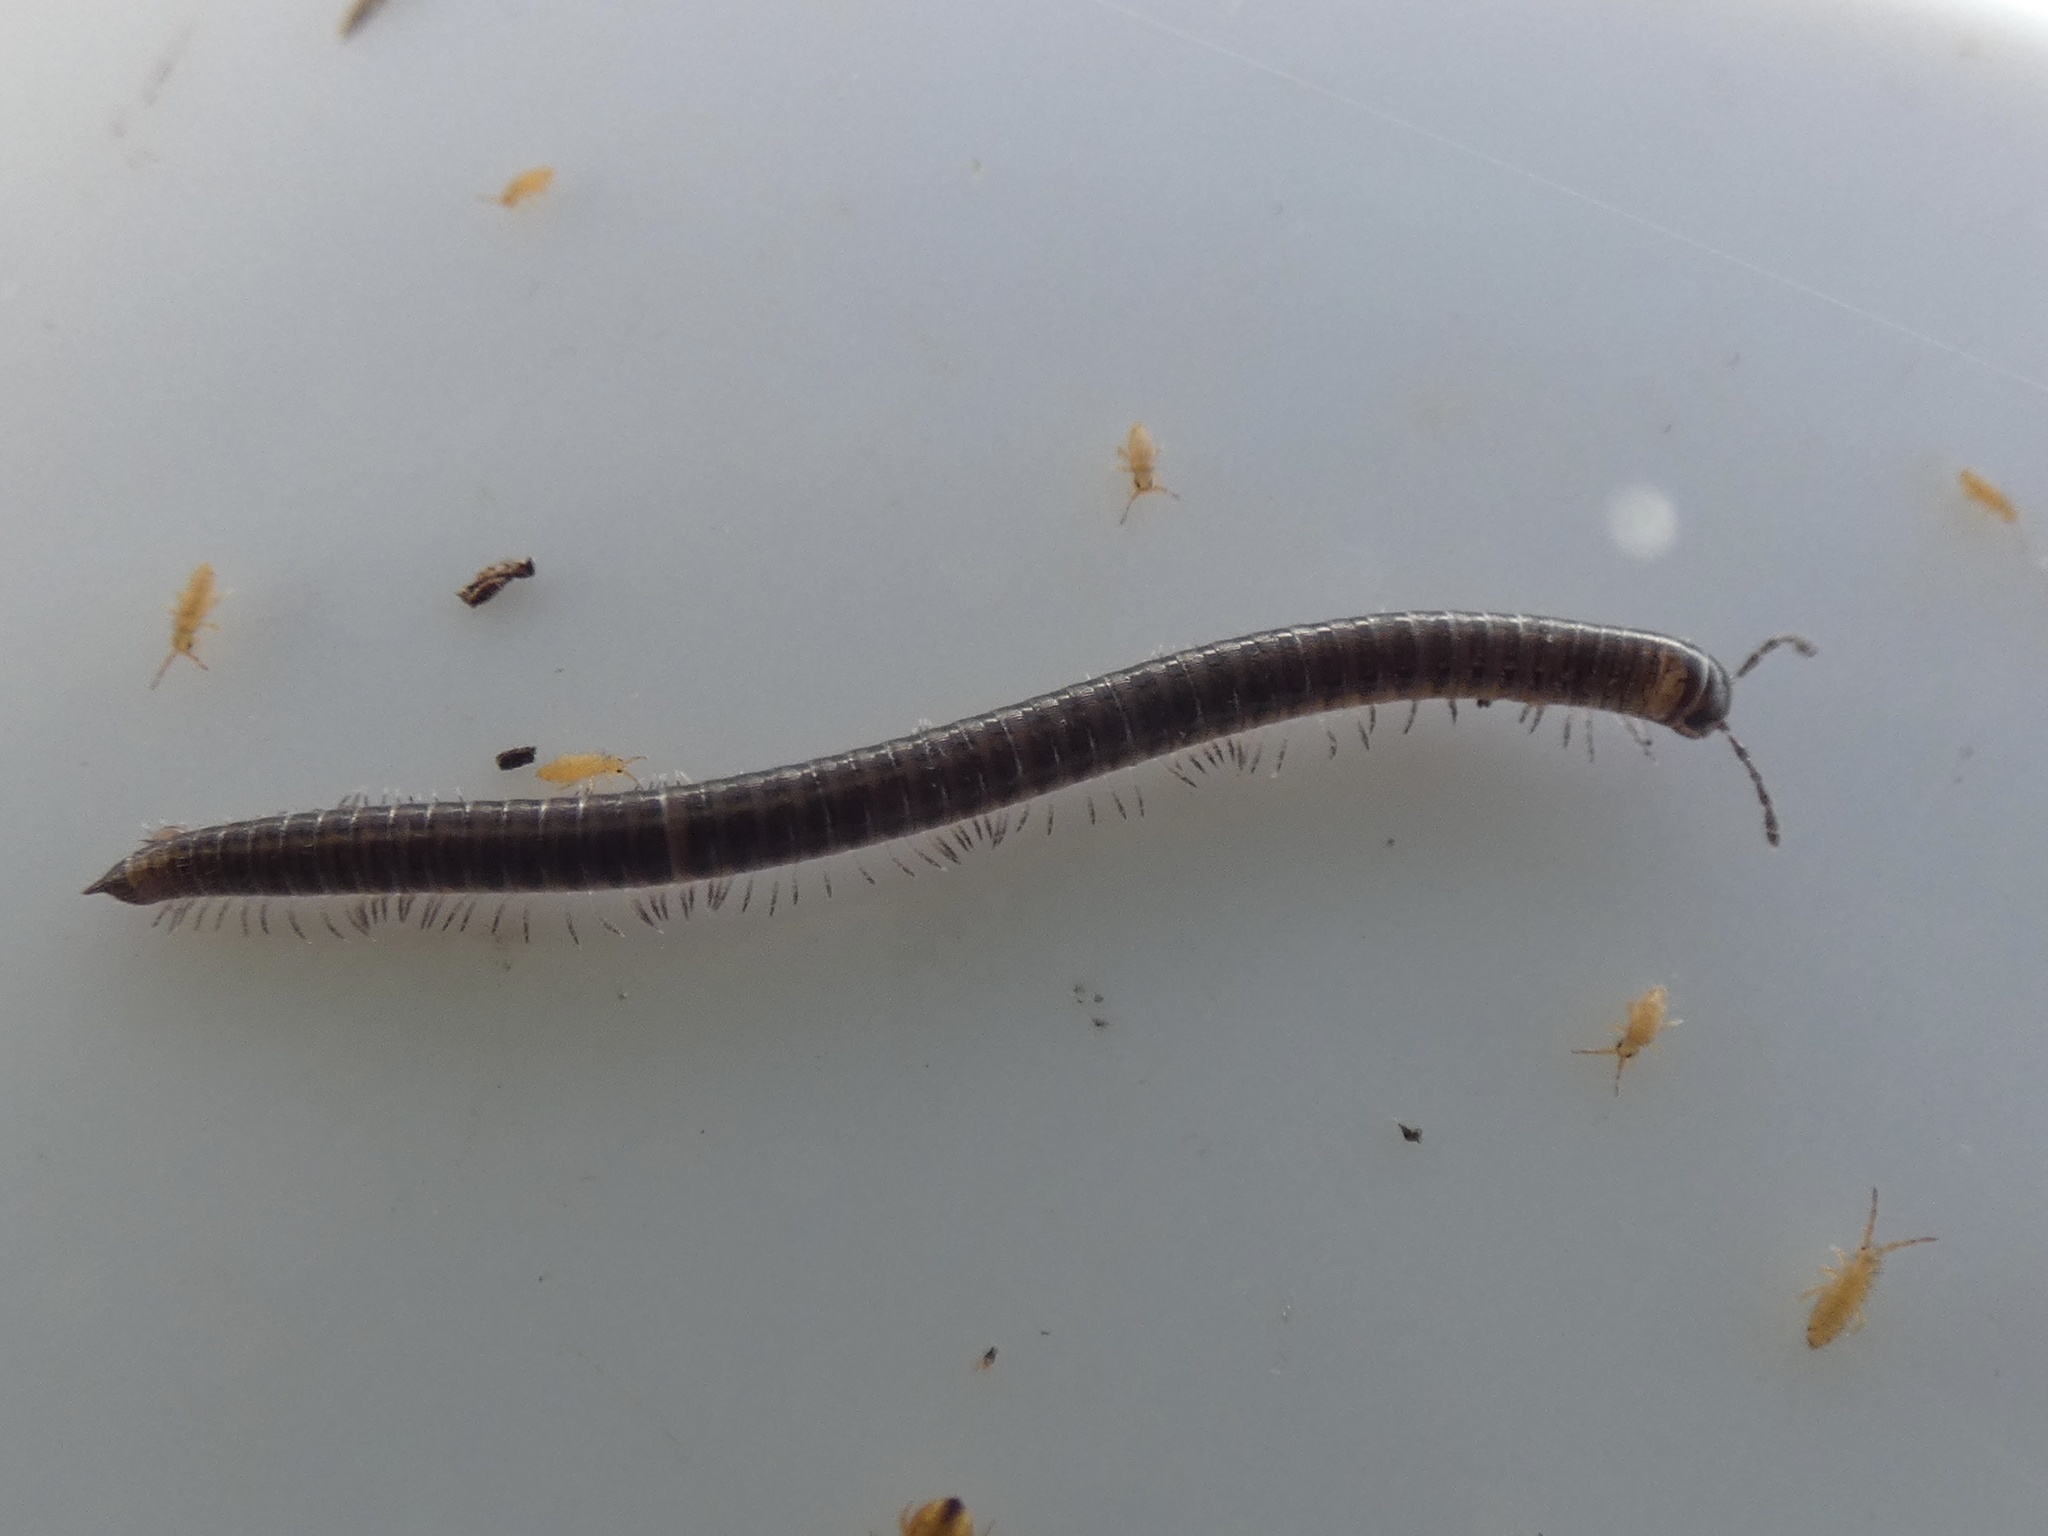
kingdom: Animalia
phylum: Arthropoda
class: Diplopoda
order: Julida
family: Julidae
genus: Leptoiulus
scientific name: Leptoiulus belgicus
